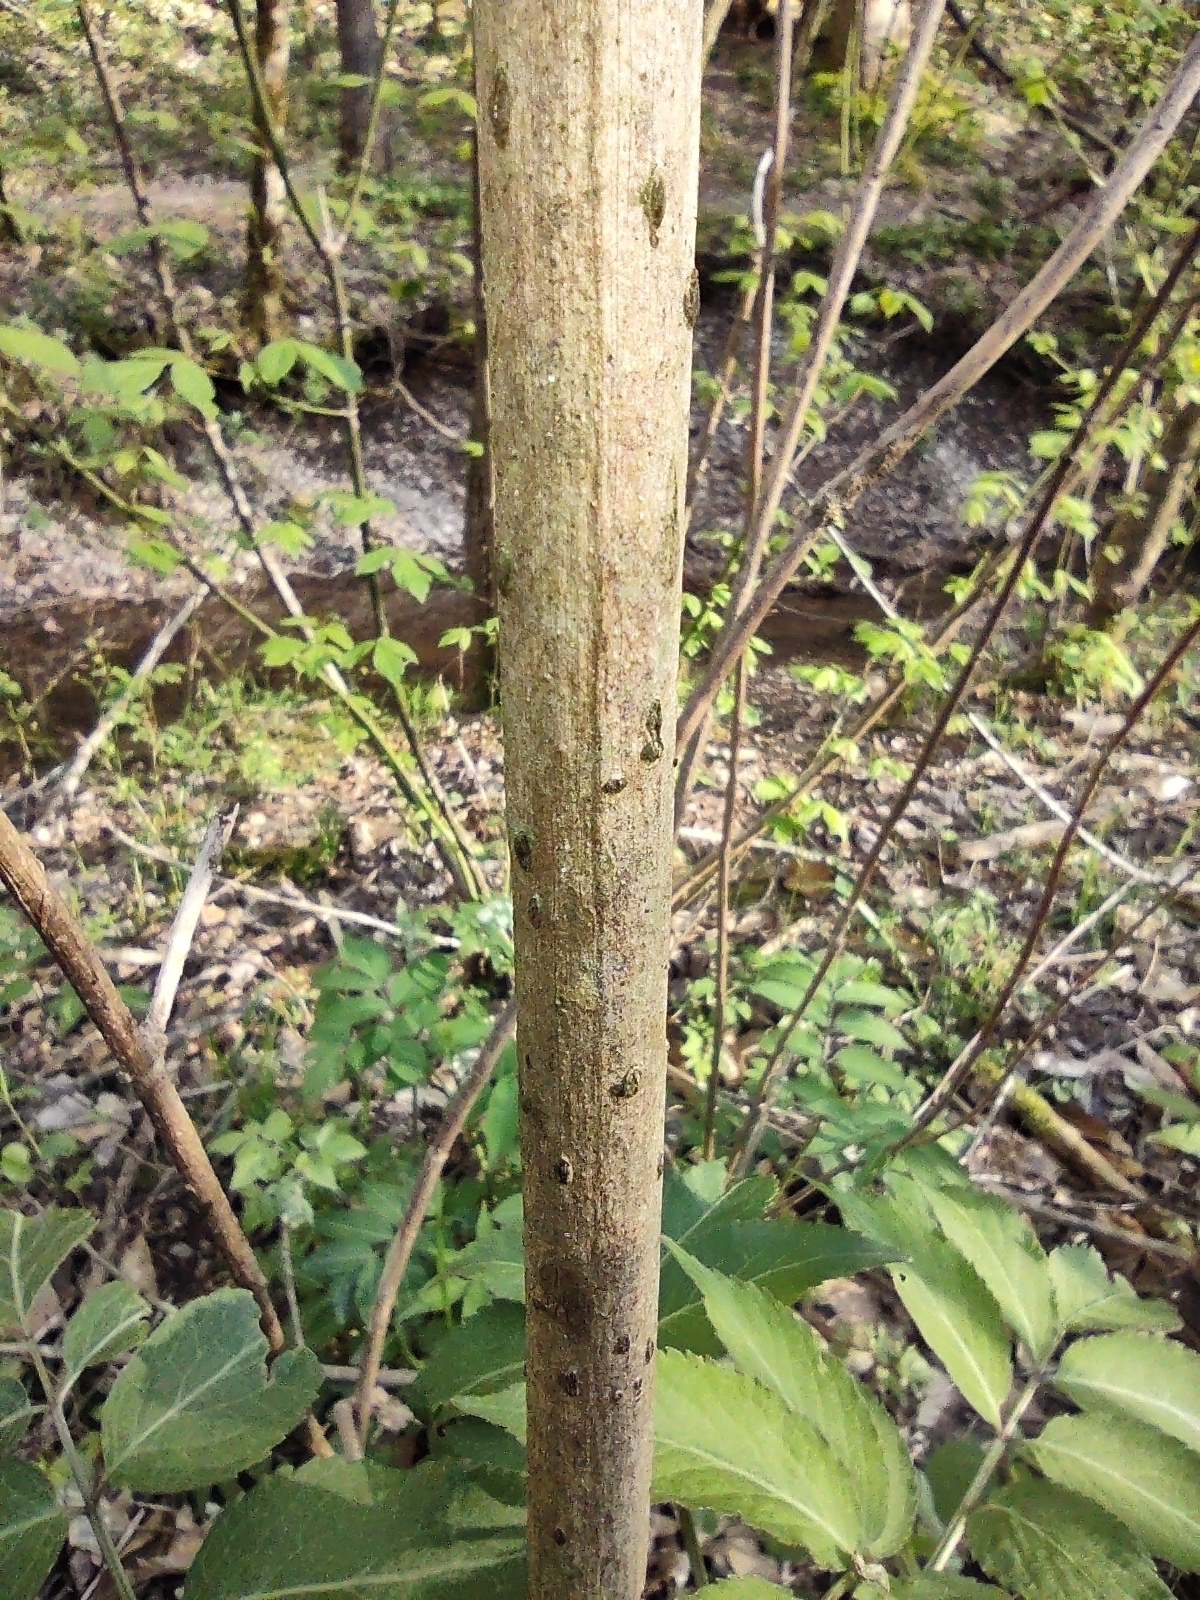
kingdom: Plantae
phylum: Tracheophyta
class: Magnoliopsida
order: Dipsacales
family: Viburnaceae
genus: Sambucus
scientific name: Sambucus canadensis
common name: American elder
